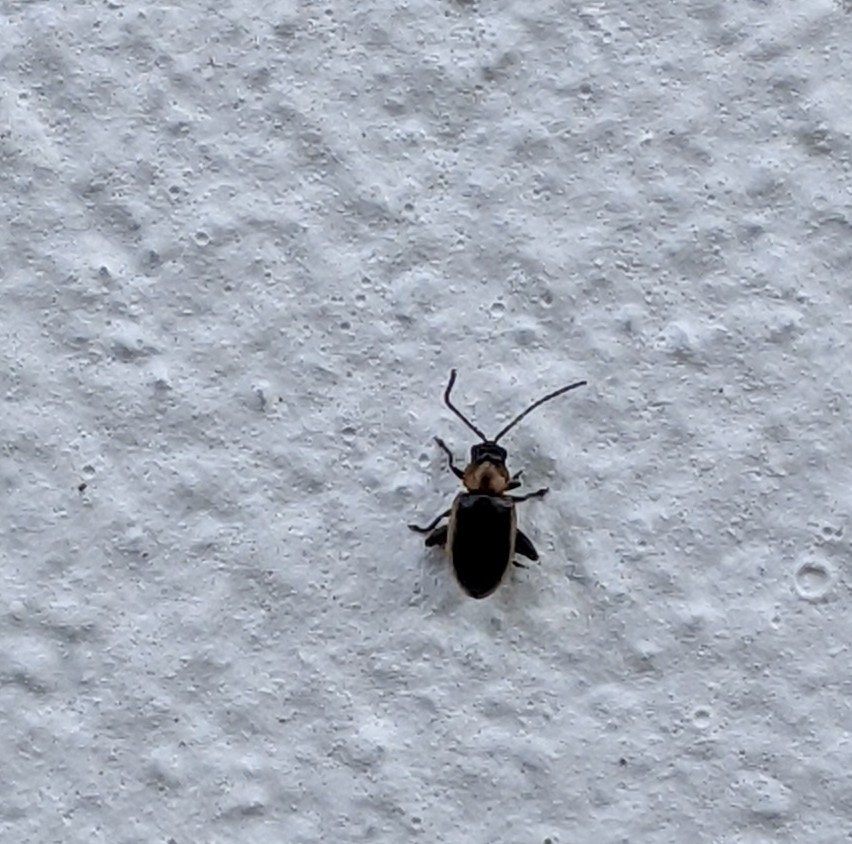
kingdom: Animalia
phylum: Arthropoda
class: Insecta
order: Coleoptera
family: Chrysomelidae
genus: Longitarsus
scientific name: Longitarsus dorsalis
